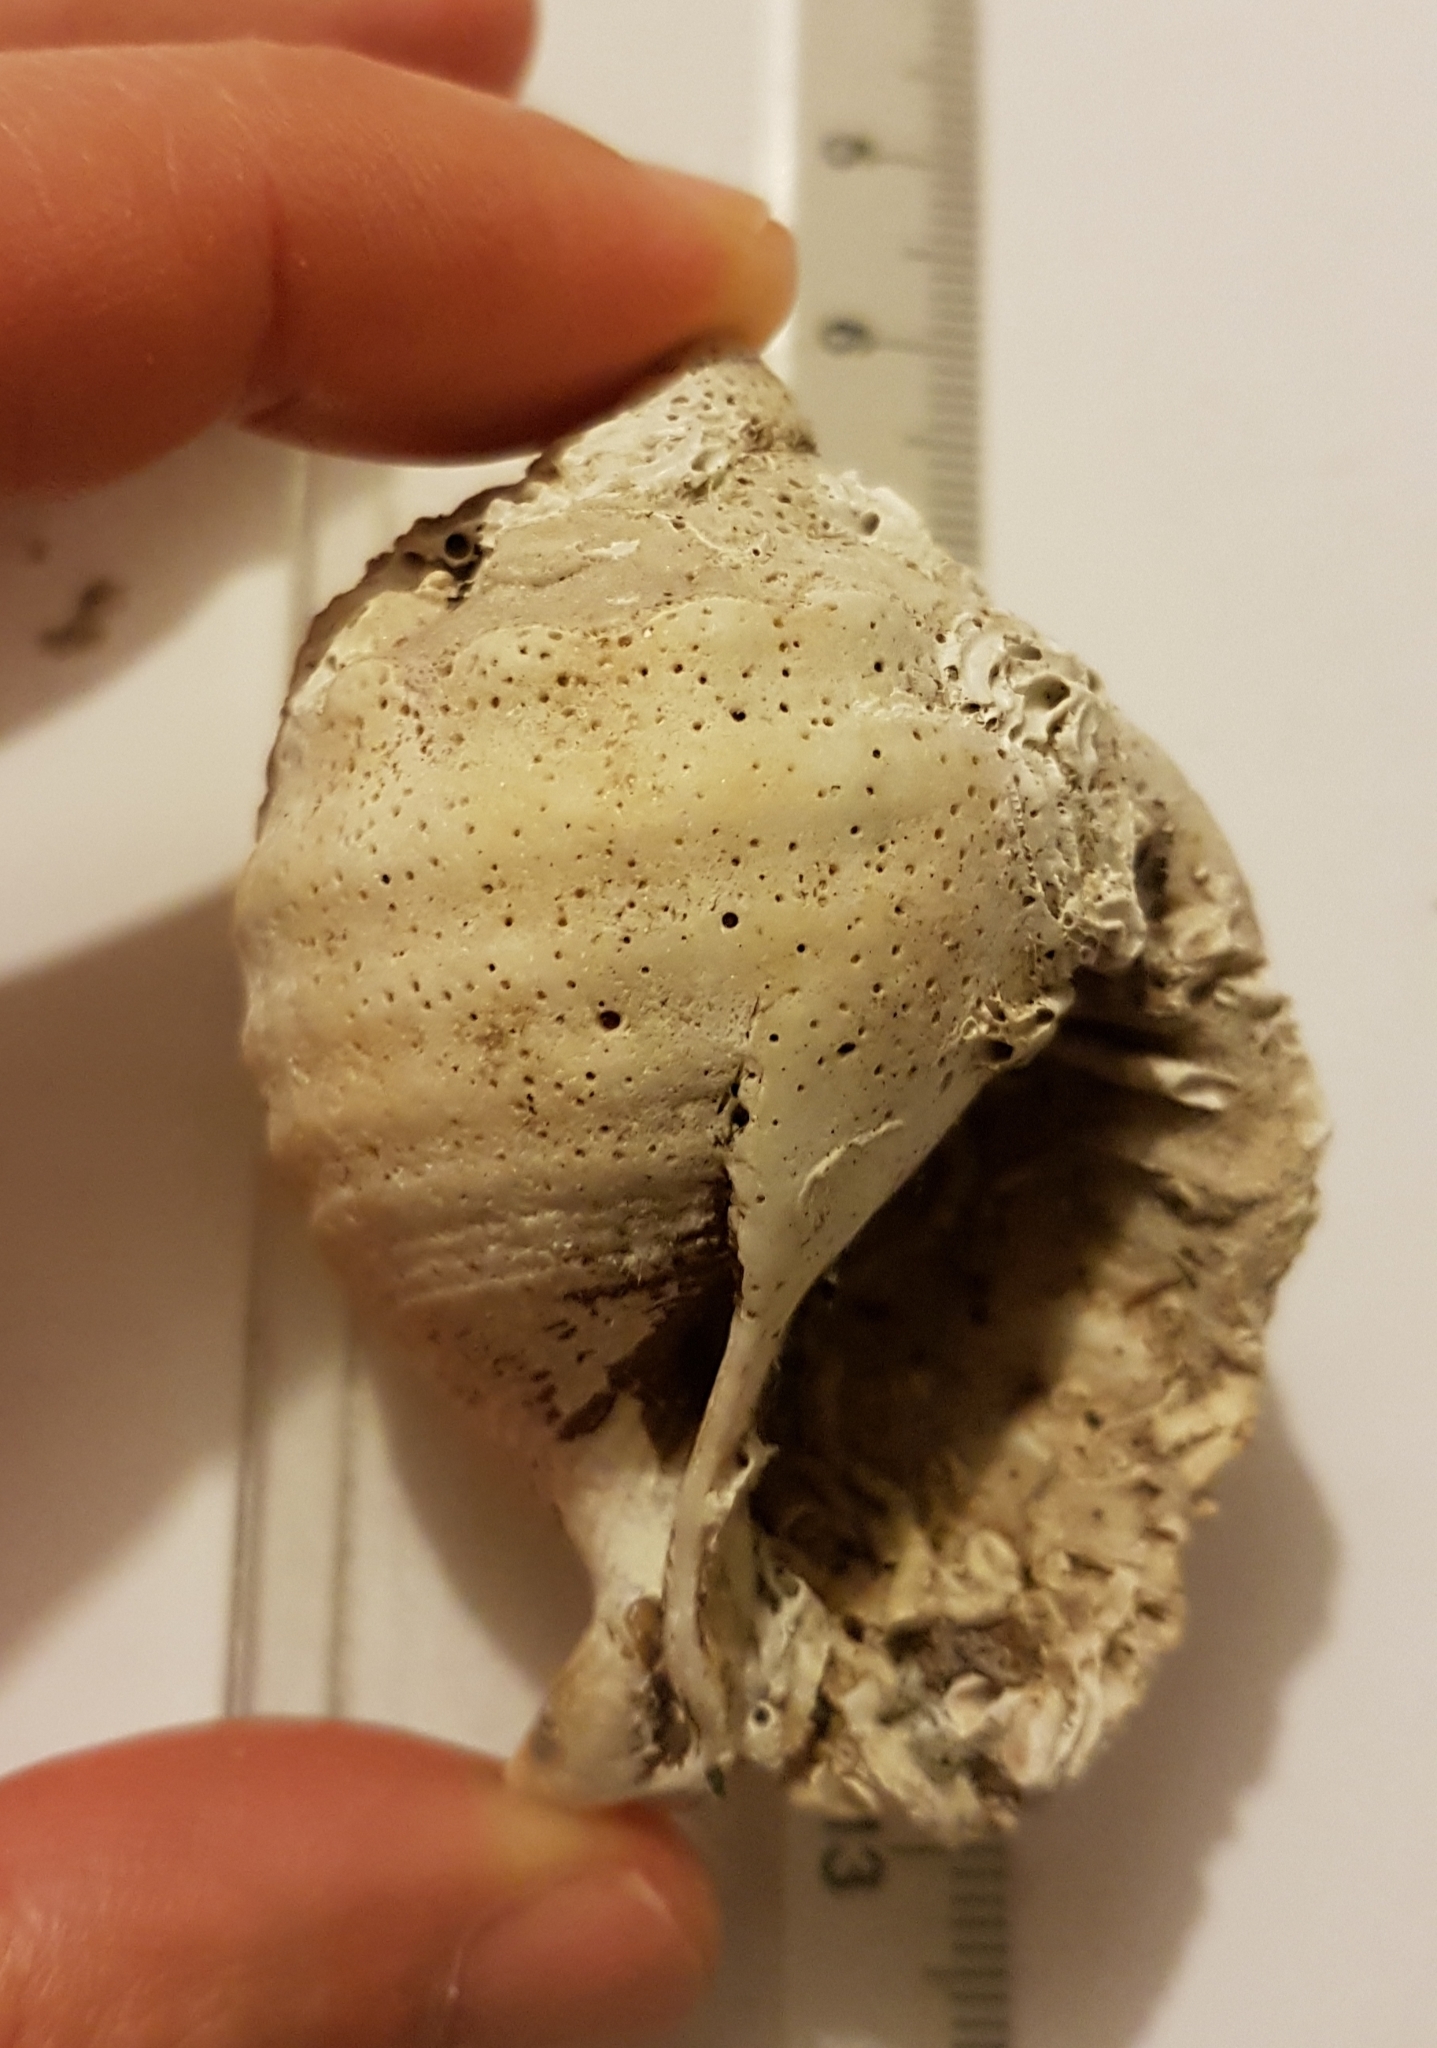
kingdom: Animalia
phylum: Mollusca
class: Gastropoda
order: Littorinimorpha
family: Cassidae
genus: Galeodea
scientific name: Galeodea echinophora
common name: Mediterranean spiny bonnet
